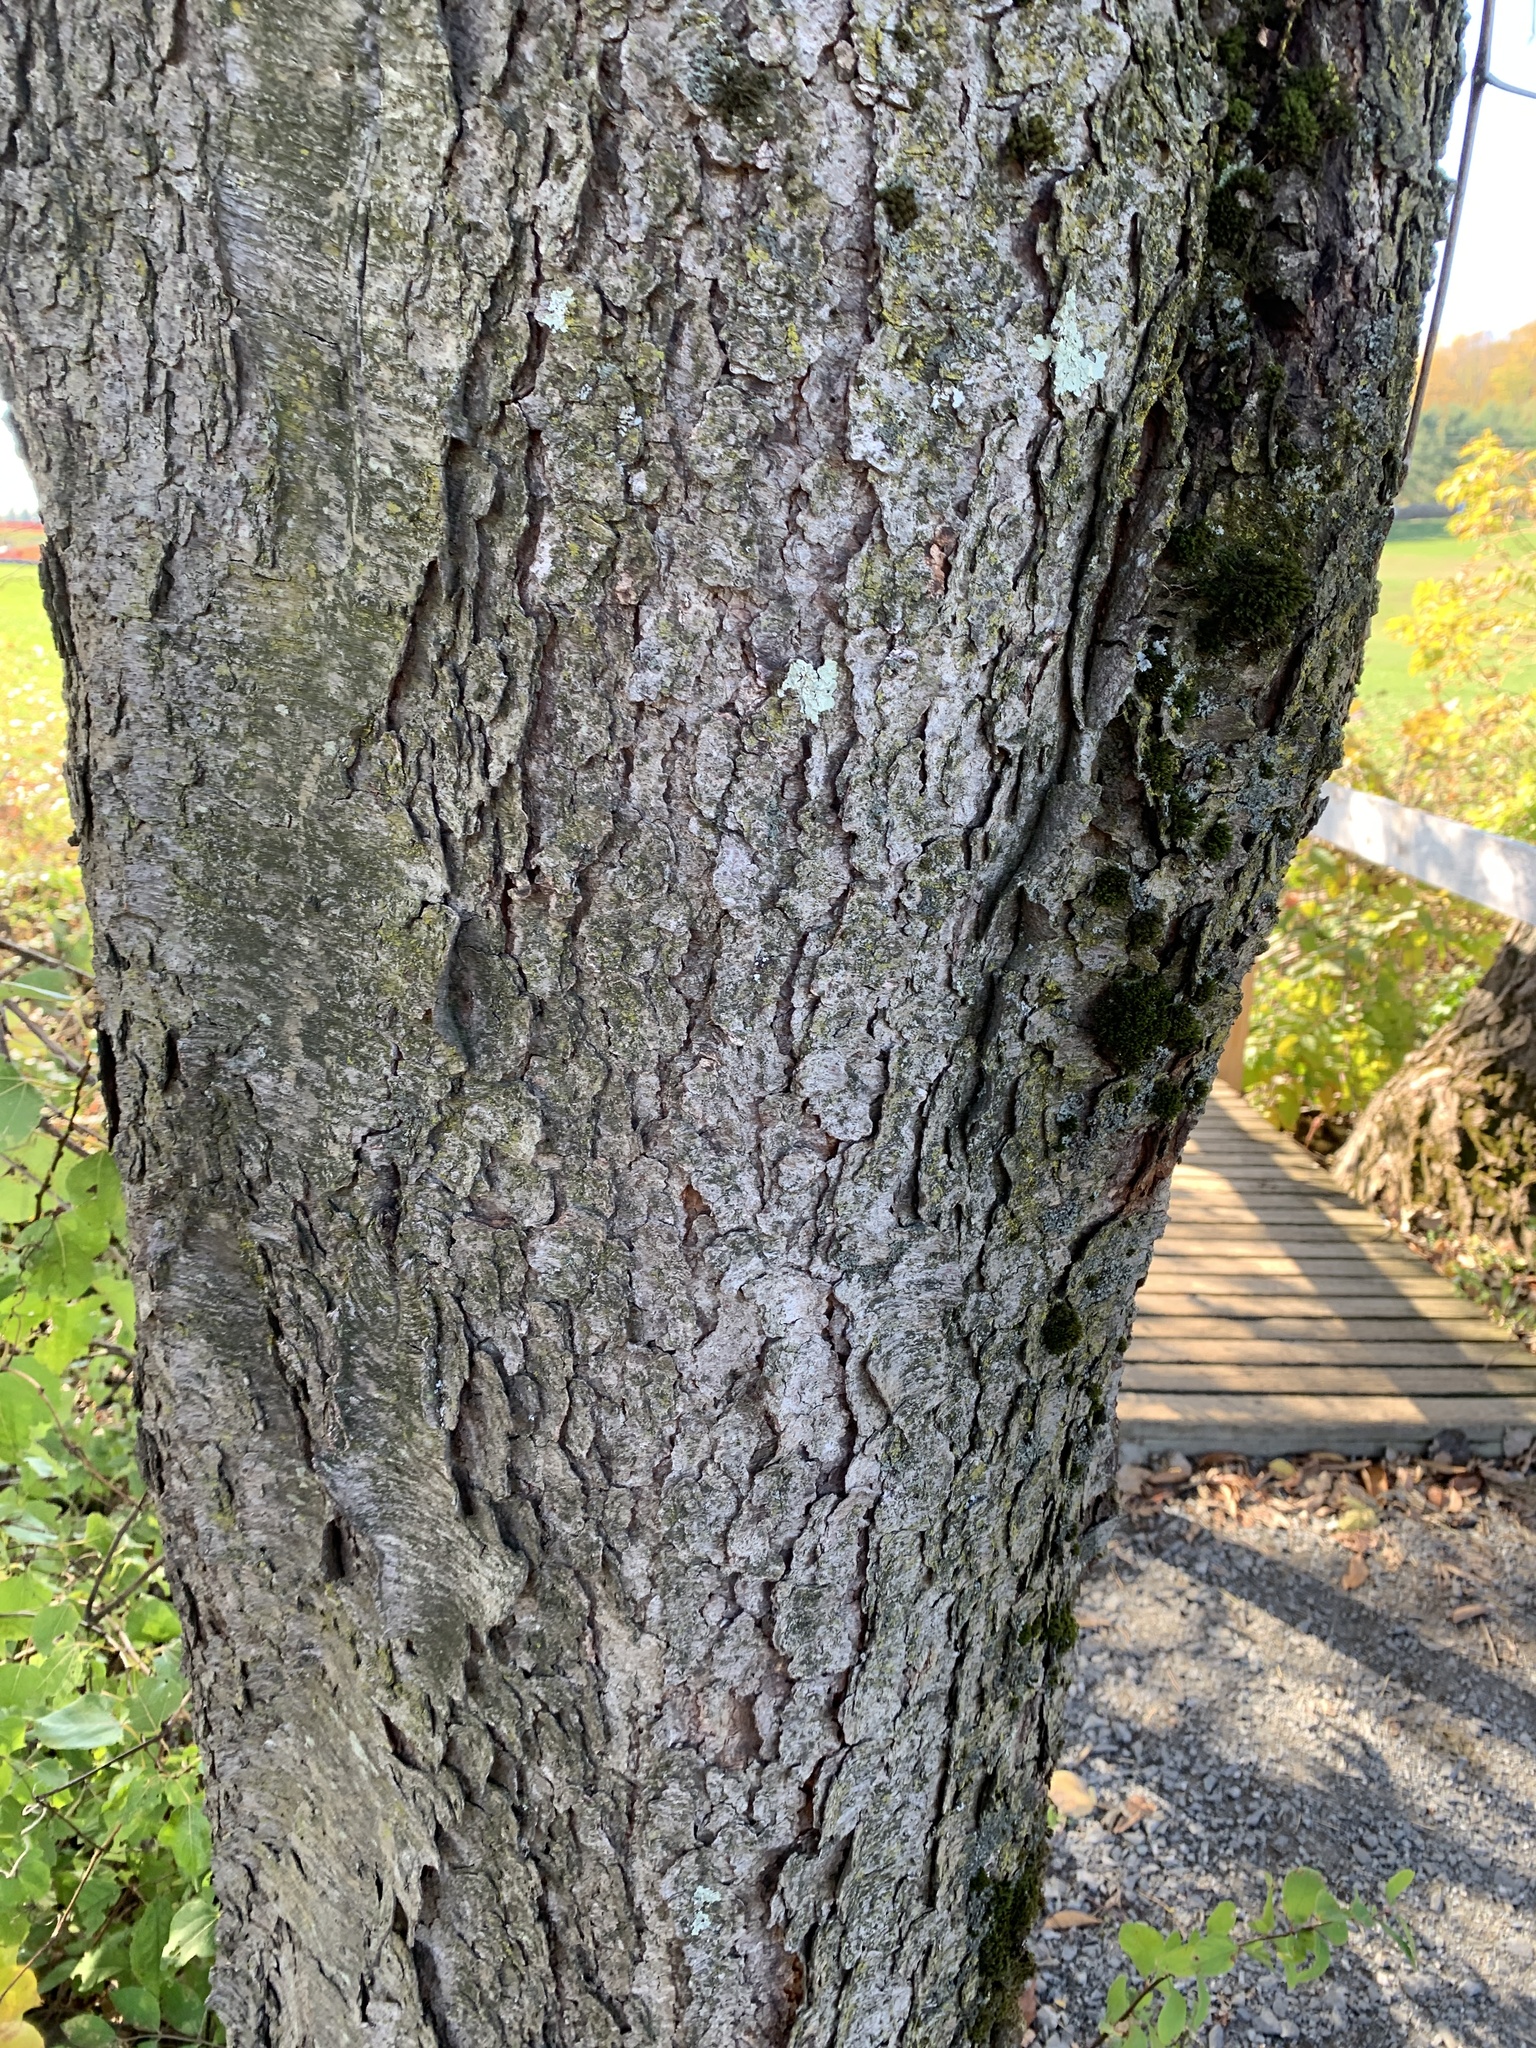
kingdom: Plantae
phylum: Tracheophyta
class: Magnoliopsida
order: Rosales
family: Rosaceae
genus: Prunus
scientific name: Prunus serotina
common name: Black cherry
